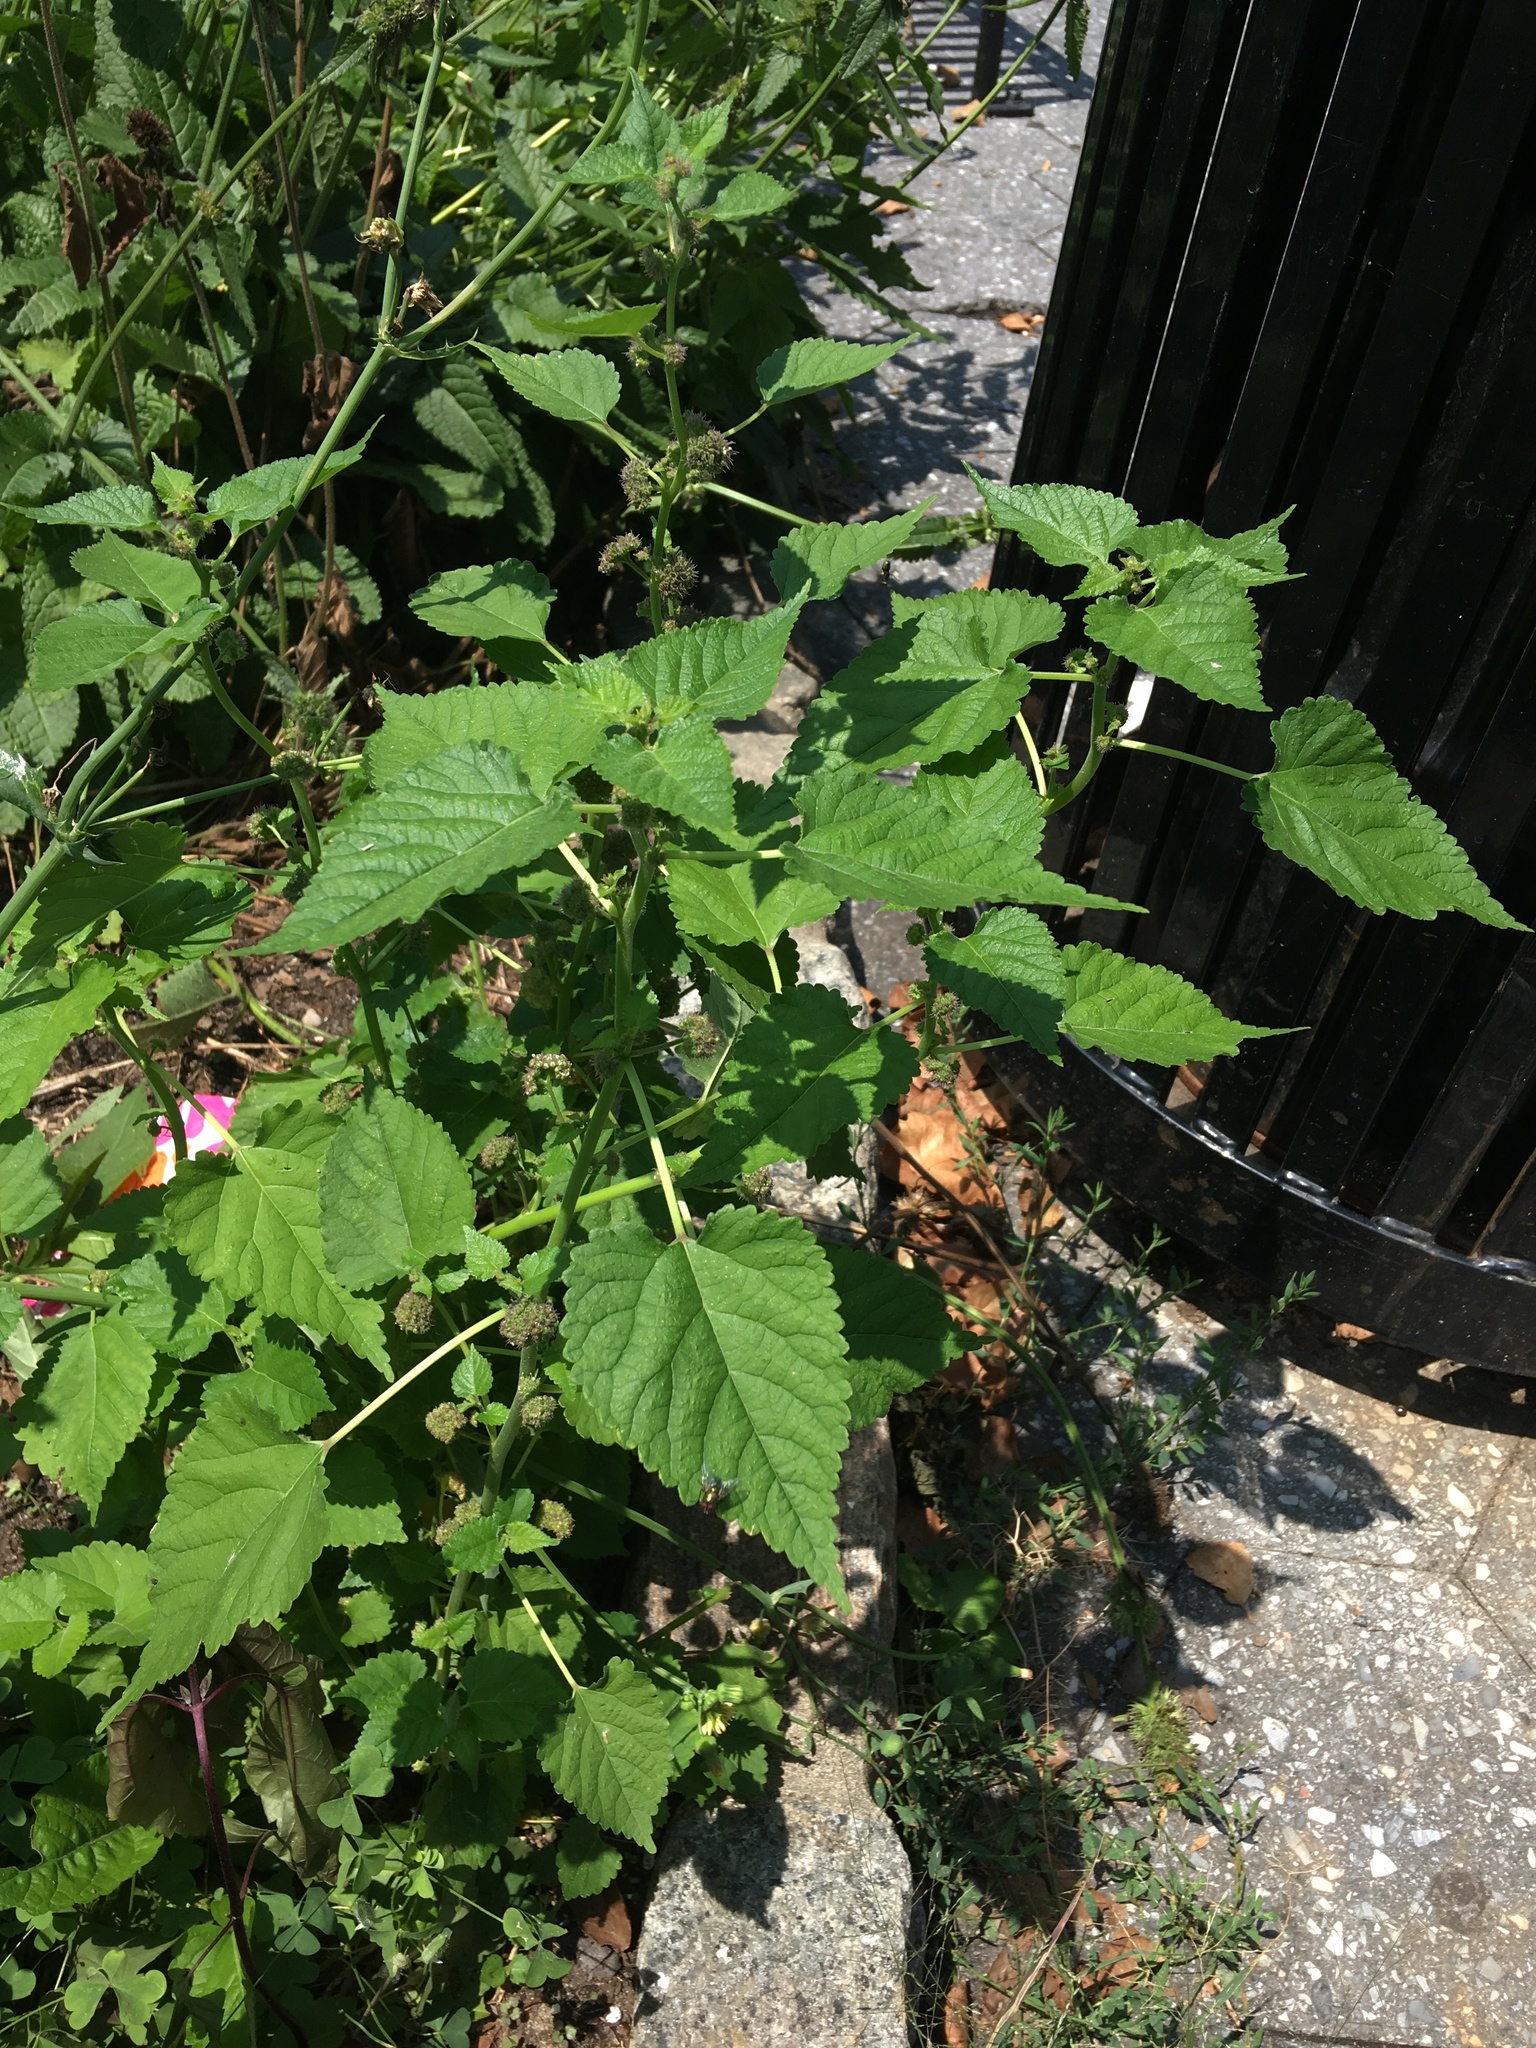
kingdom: Plantae
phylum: Tracheophyta
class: Magnoliopsida
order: Rosales
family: Moraceae
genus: Fatoua
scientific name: Fatoua villosa
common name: Hairy crabweed
